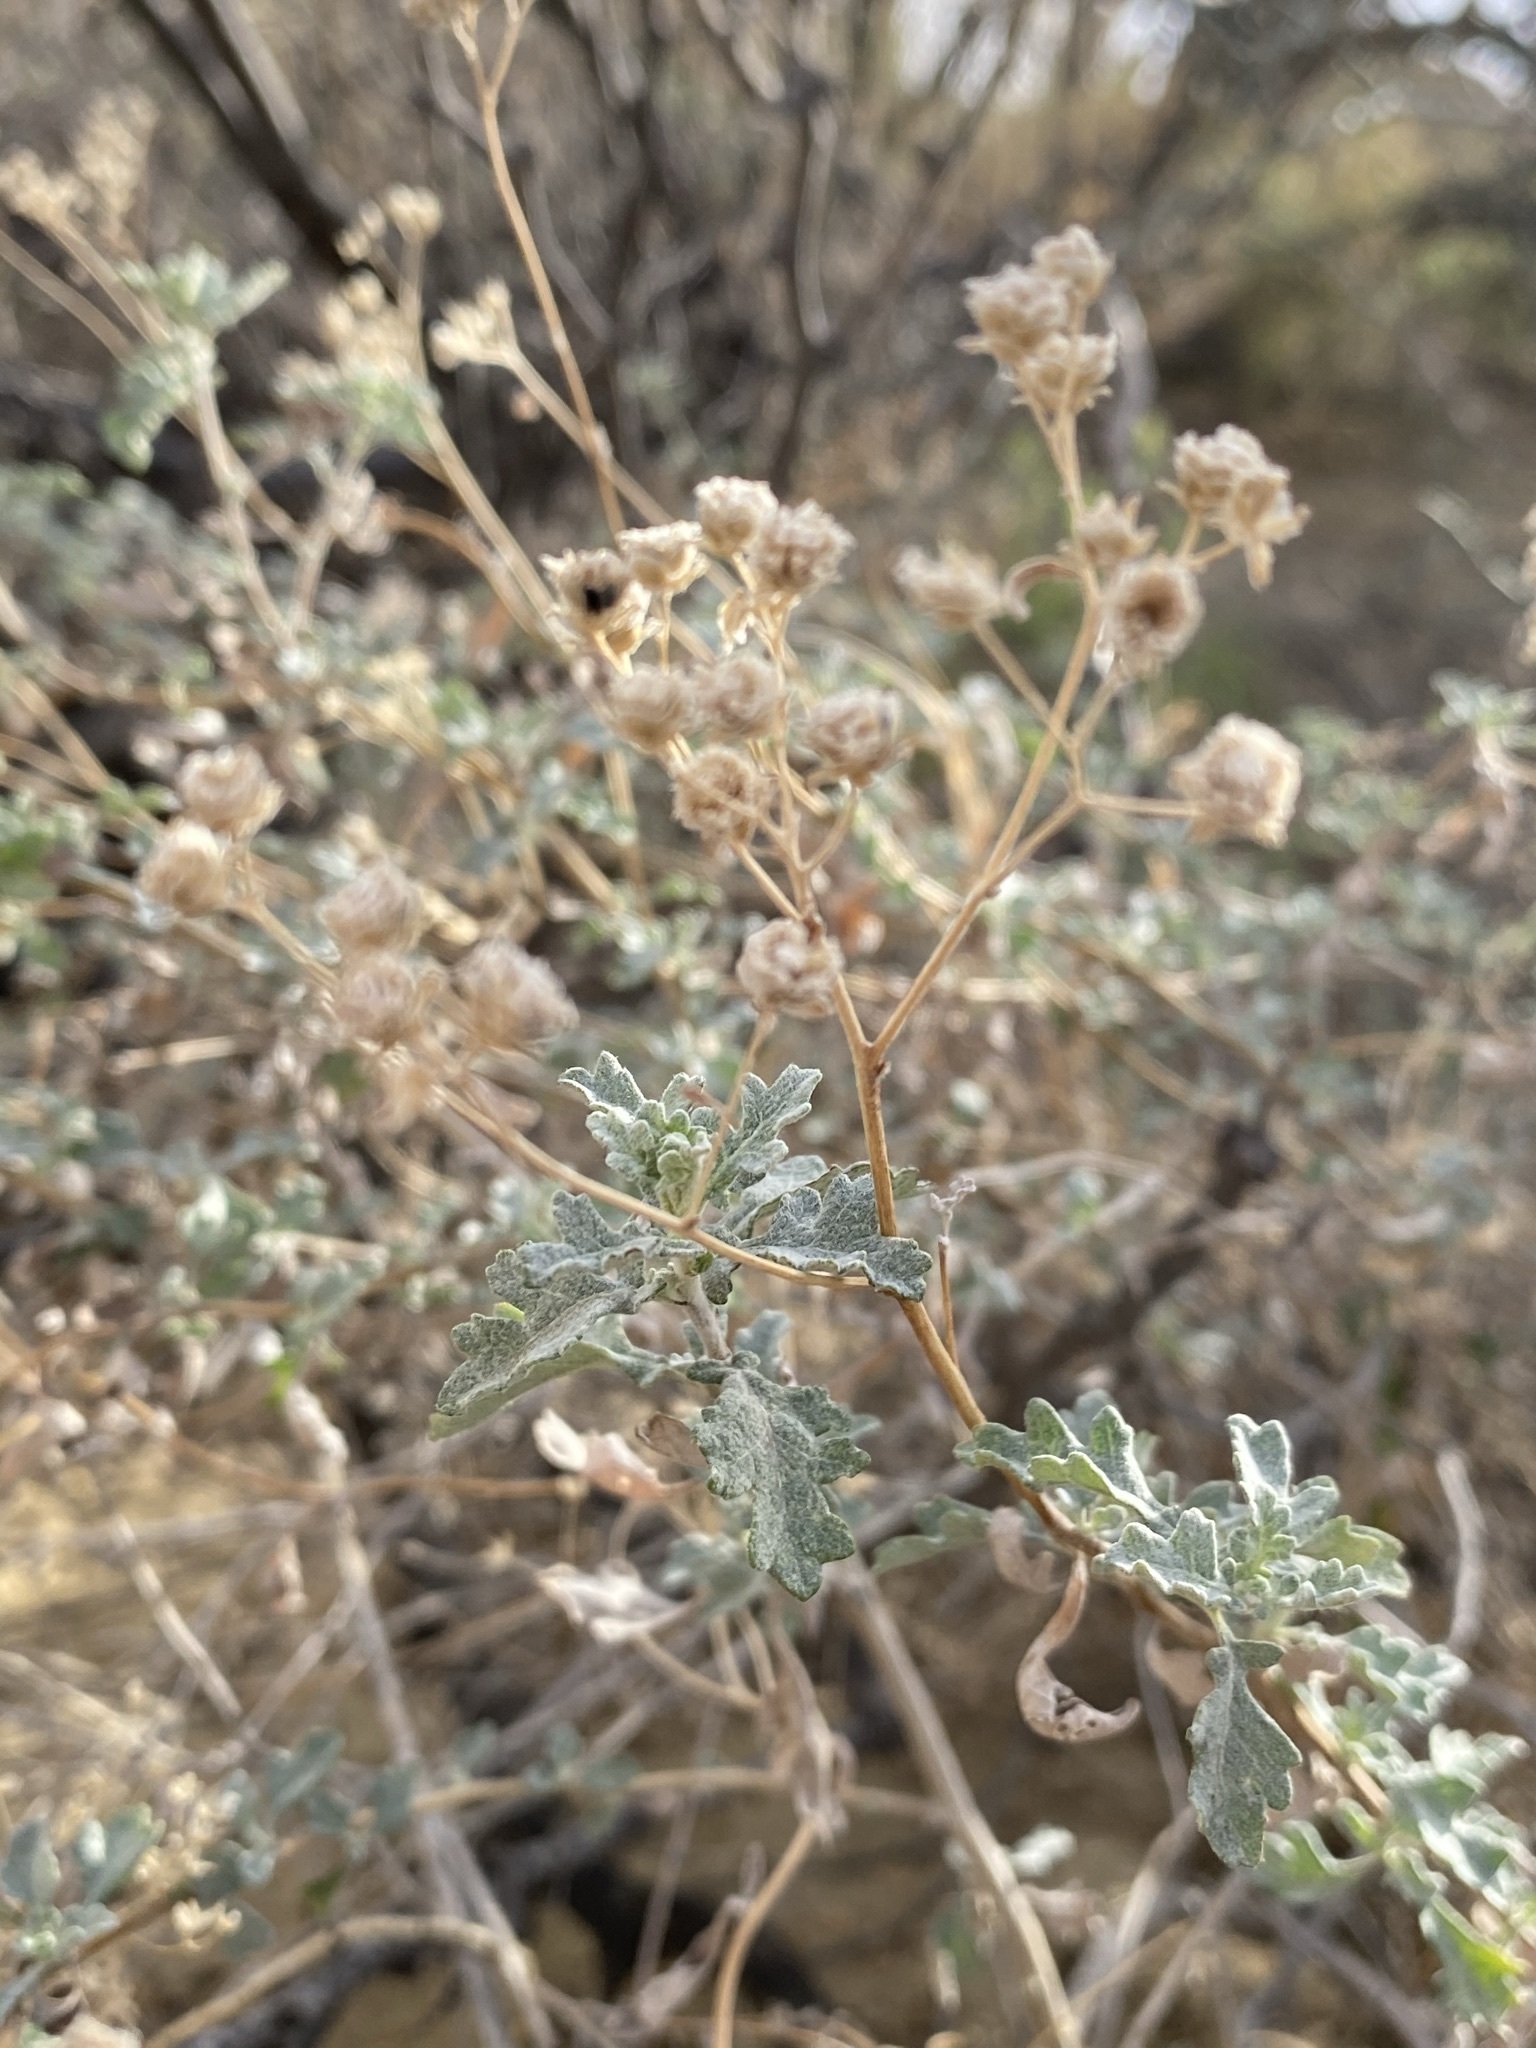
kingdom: Plantae
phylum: Tracheophyta
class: Magnoliopsida
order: Asterales
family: Asteraceae
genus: Parthenium
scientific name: Parthenium incanum
